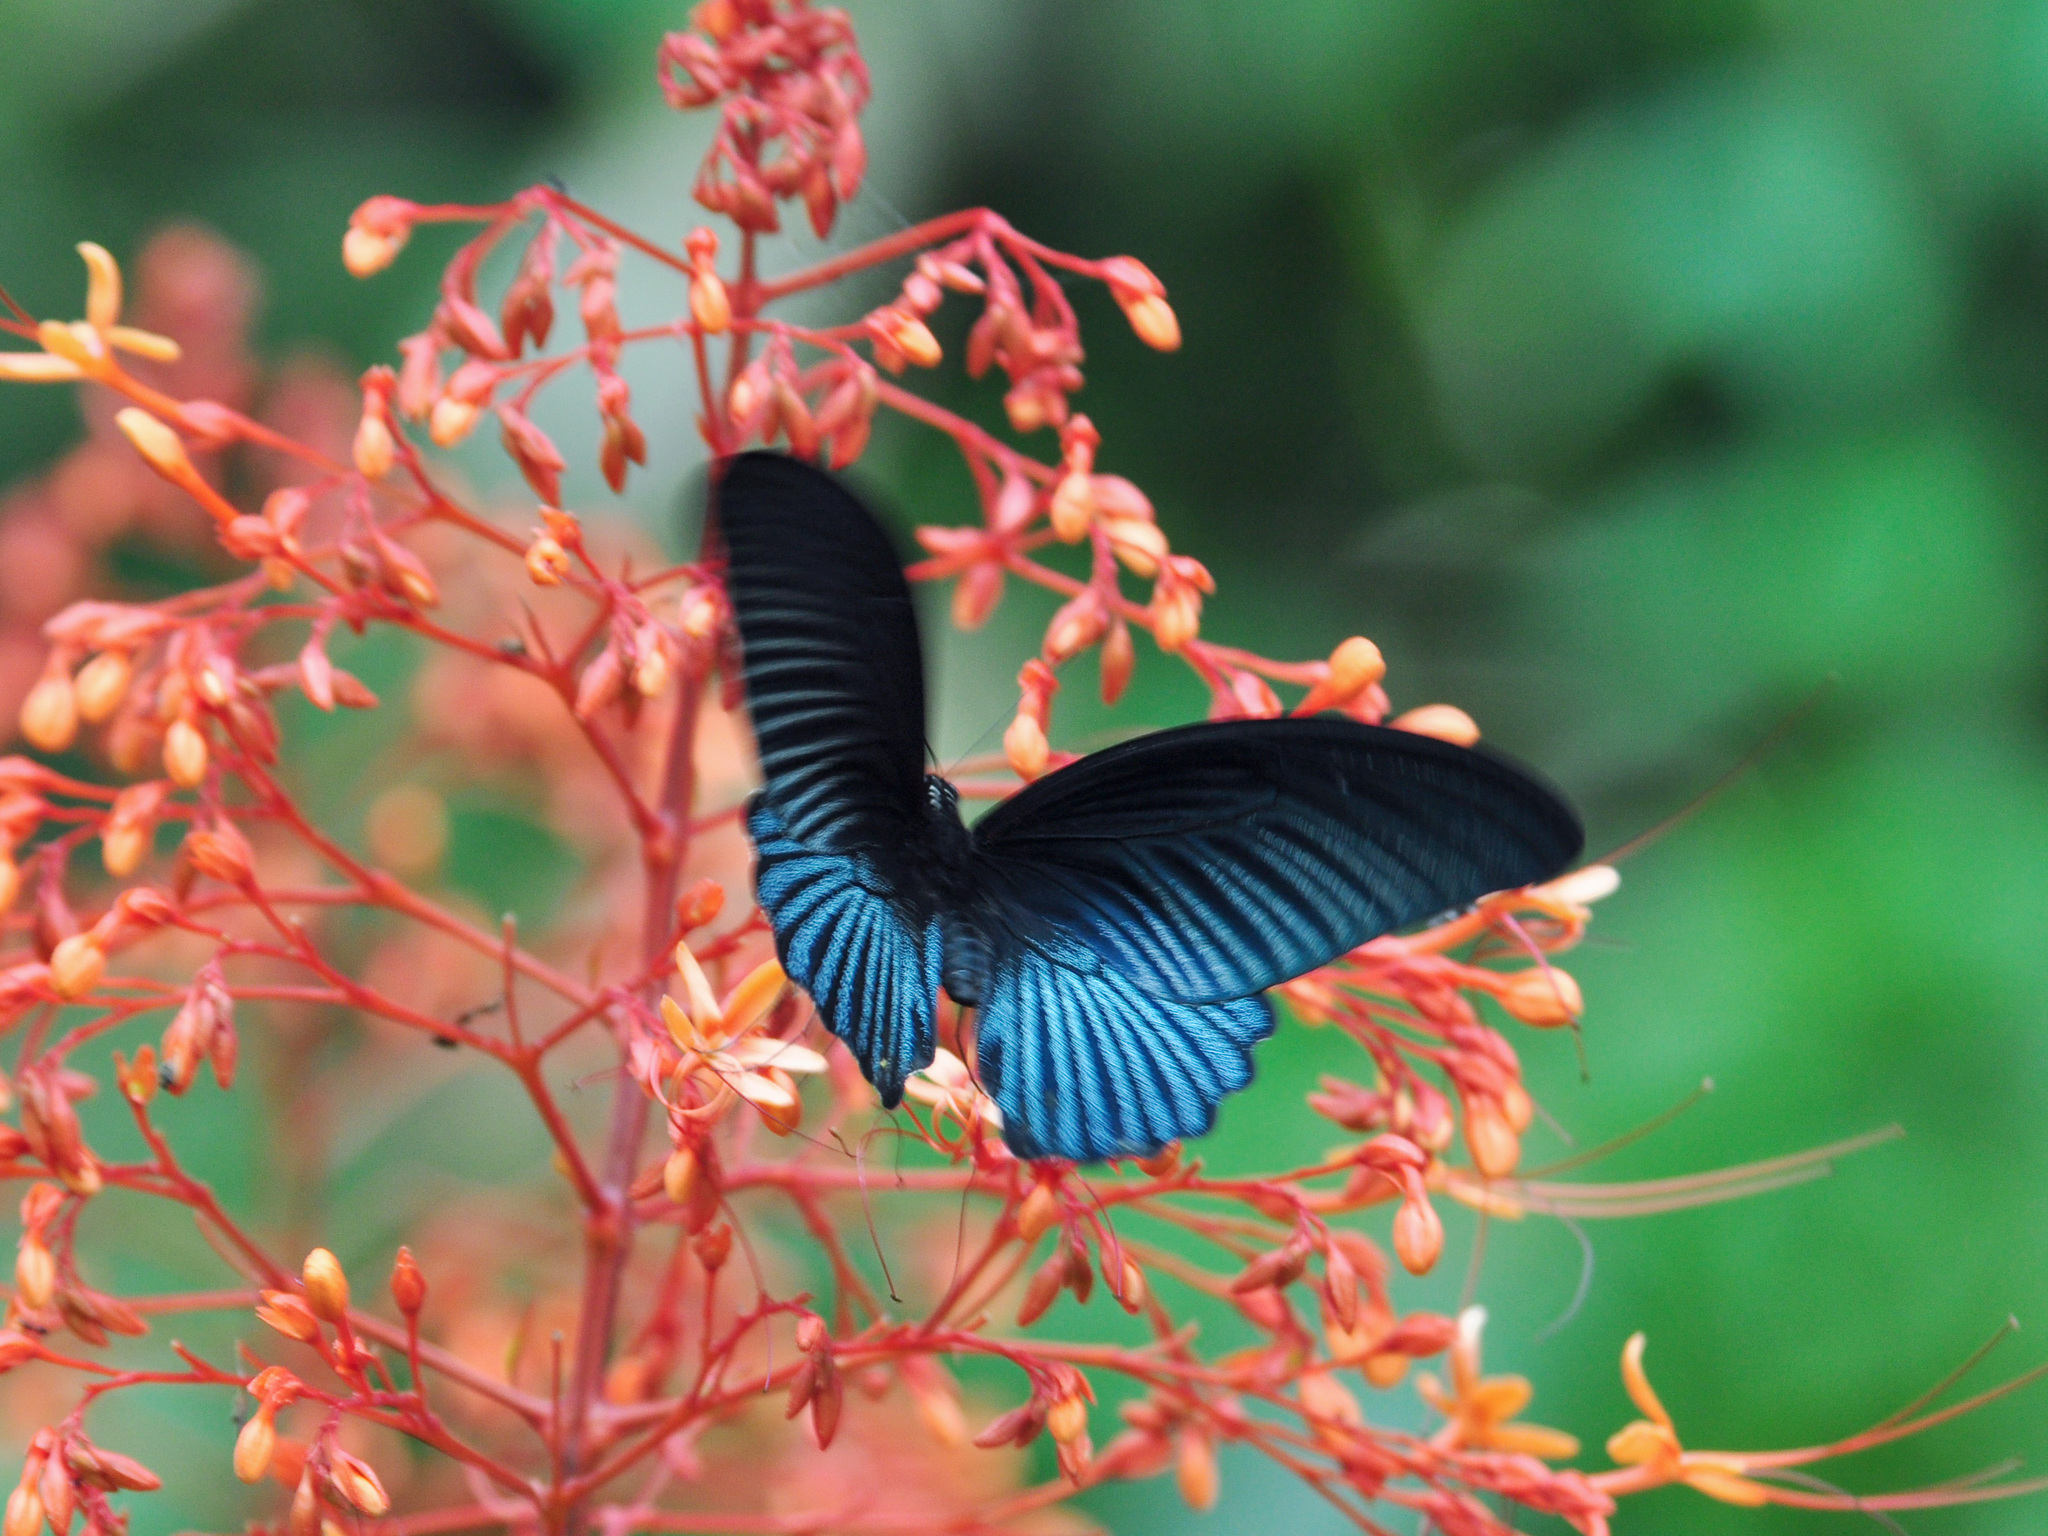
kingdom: Animalia
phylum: Arthropoda
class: Insecta
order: Lepidoptera
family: Papilionidae
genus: Papilio
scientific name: Papilio memnon
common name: Great mormon
